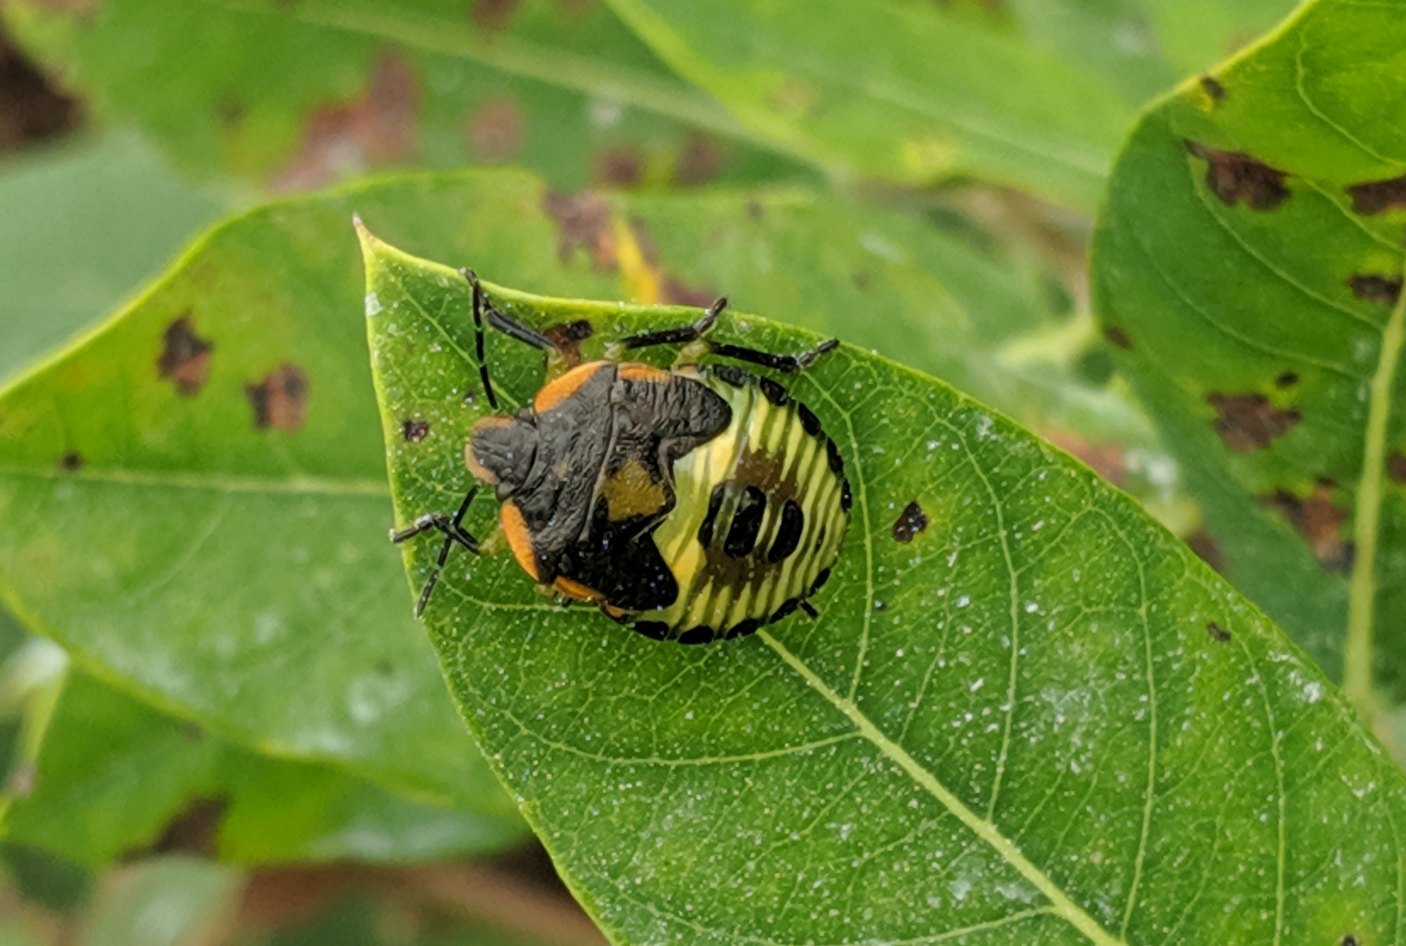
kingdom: Animalia
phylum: Arthropoda
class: Insecta
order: Hemiptera
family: Pentatomidae
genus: Chinavia
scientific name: Chinavia hilaris
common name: Green stink bug
